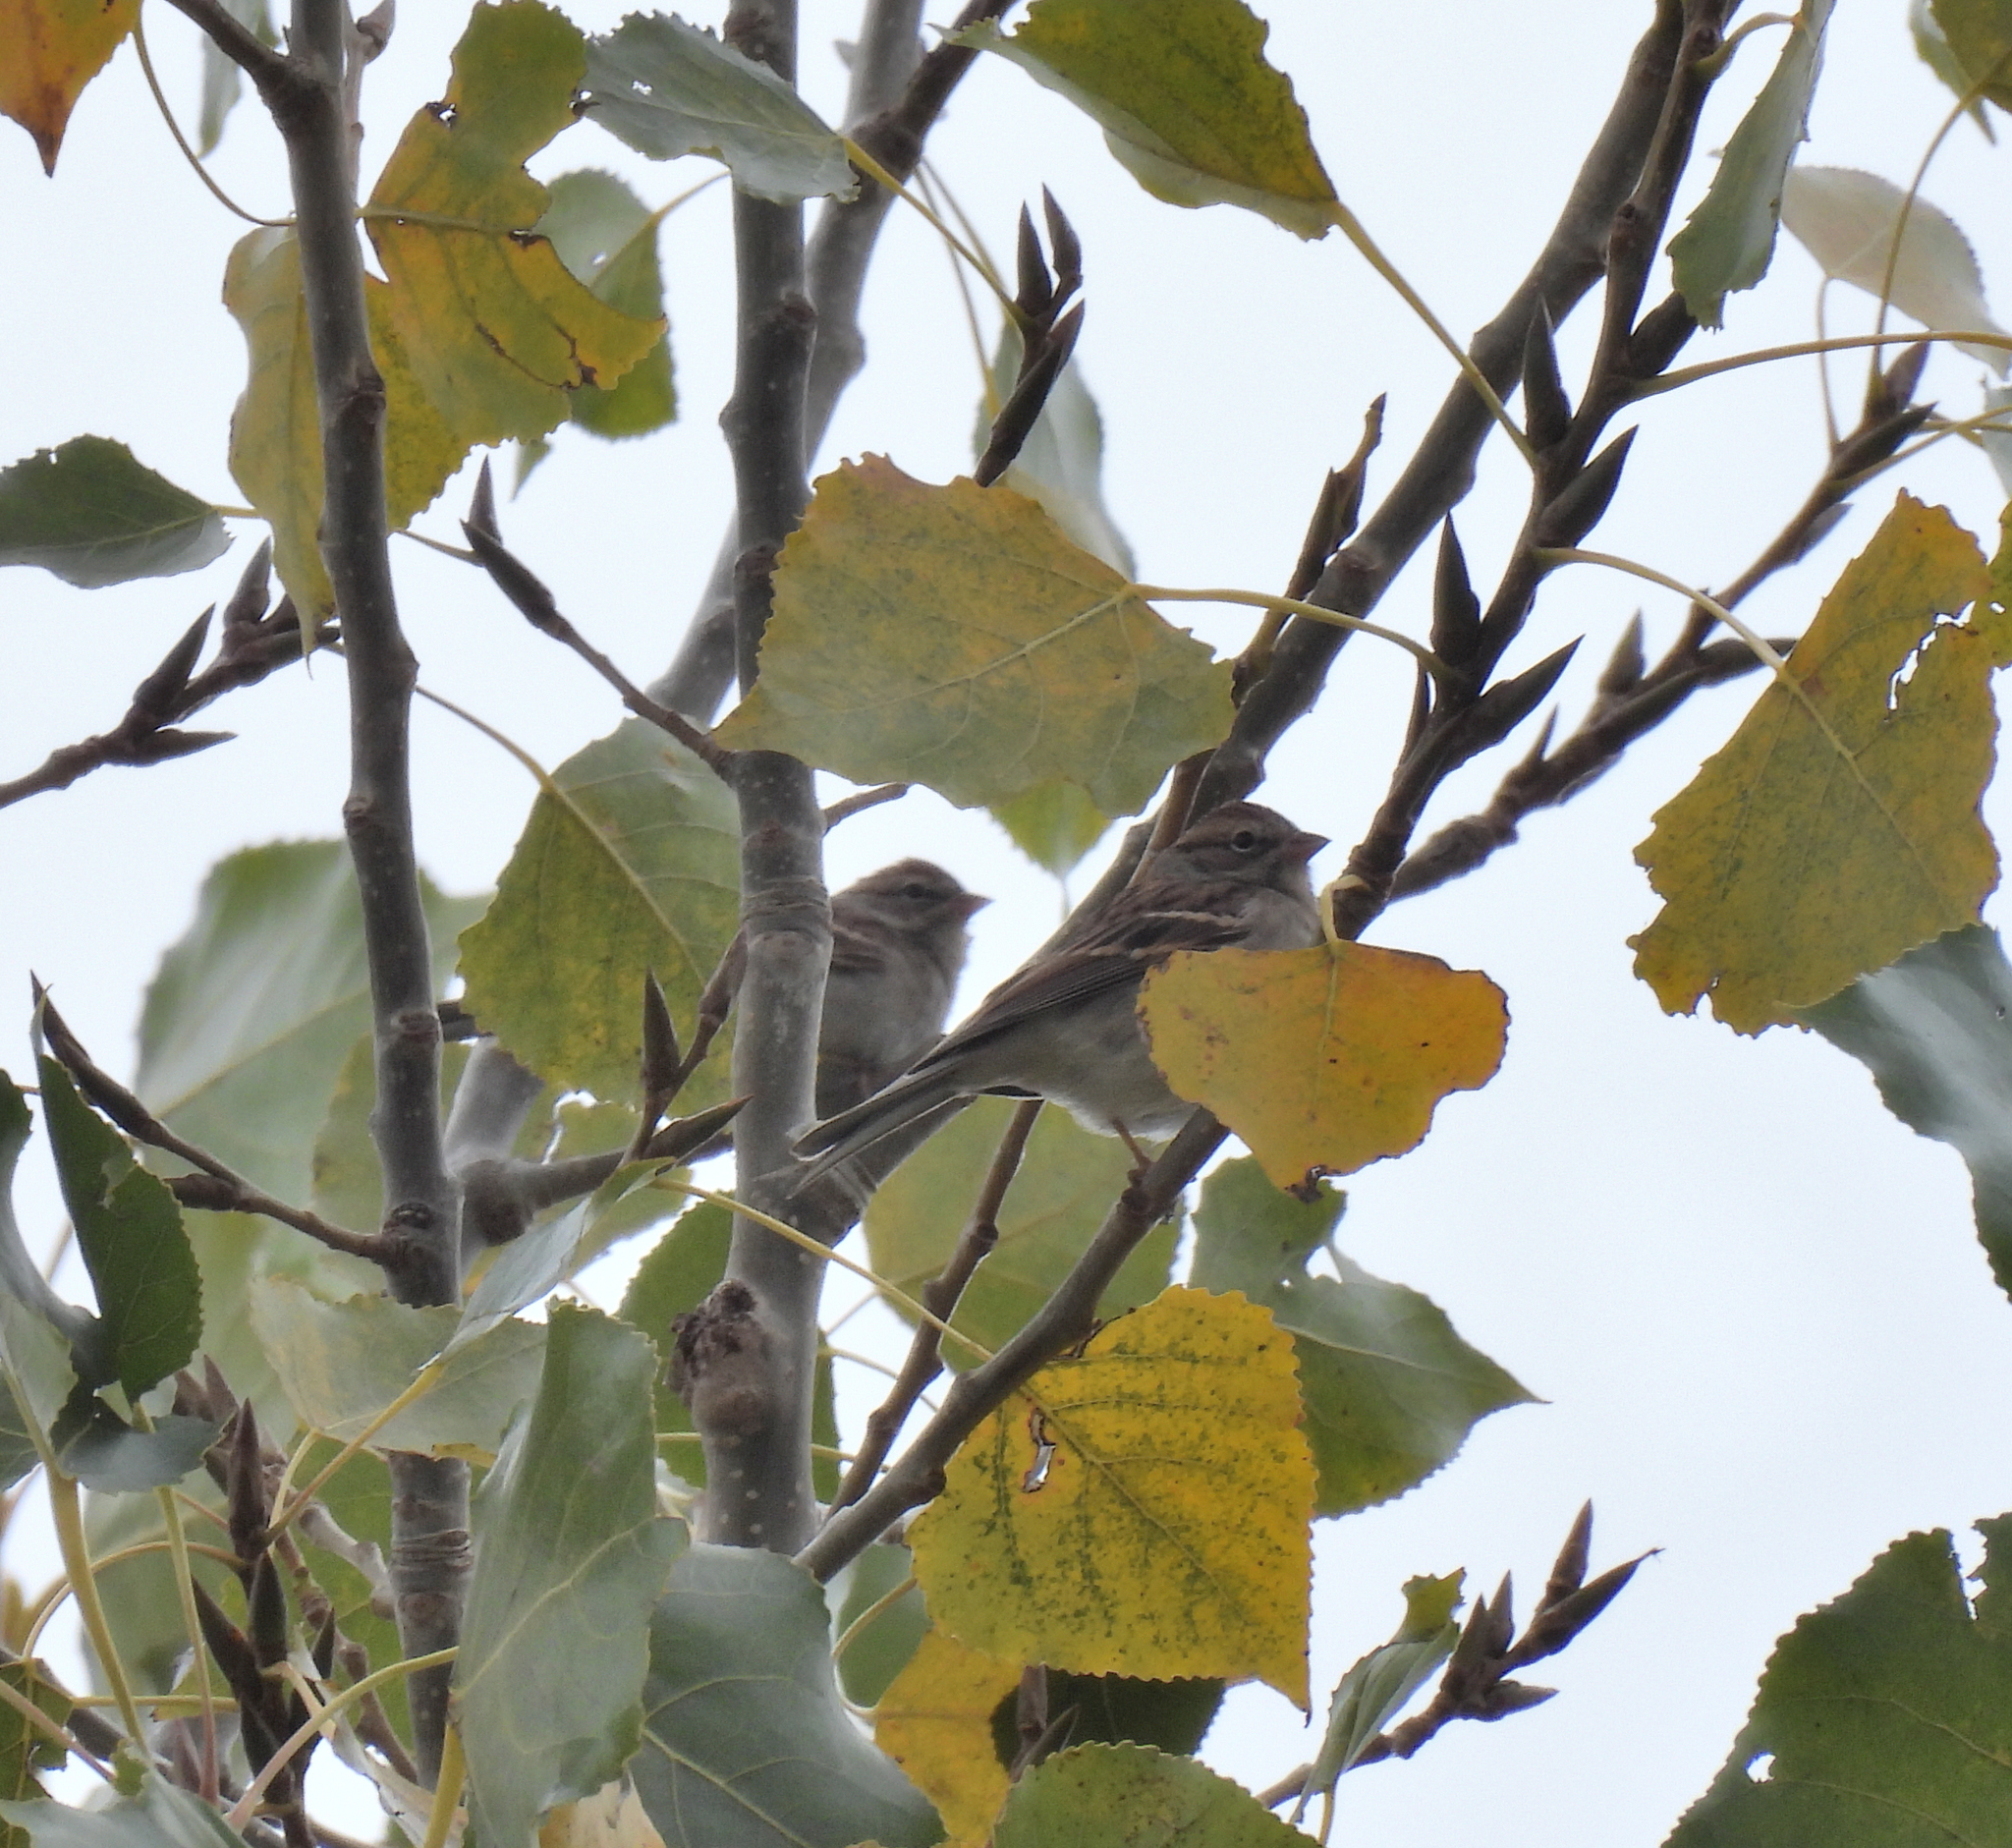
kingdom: Animalia
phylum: Chordata
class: Aves
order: Passeriformes
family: Passerellidae
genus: Spizella
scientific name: Spizella passerina
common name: Chipping sparrow
